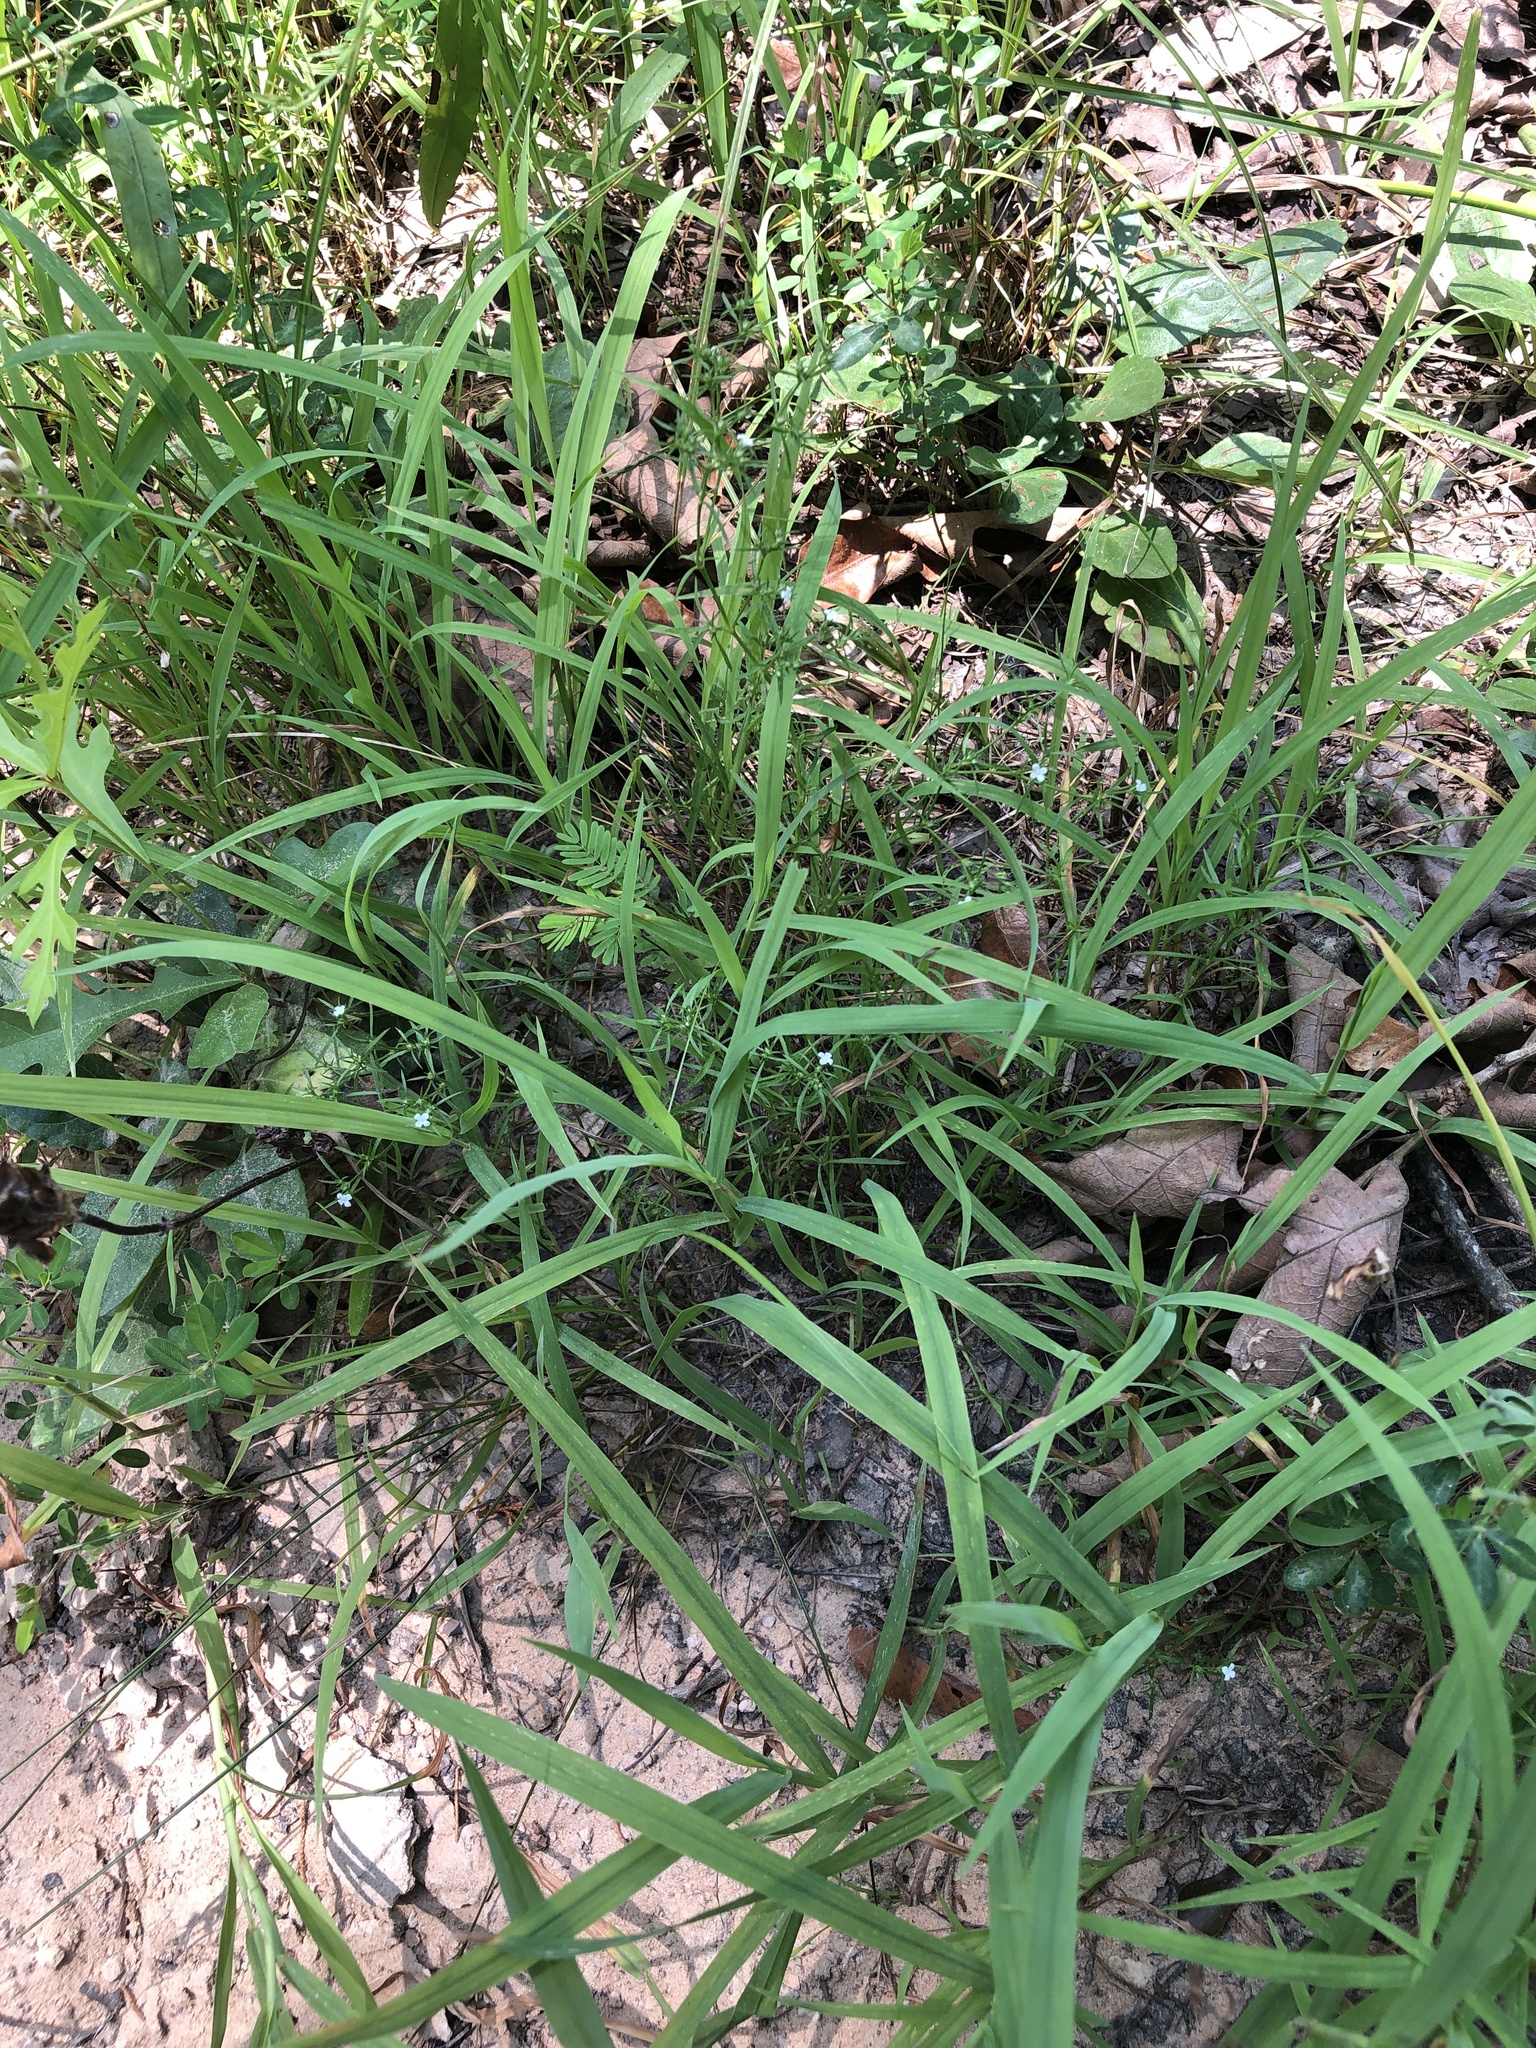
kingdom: Plantae
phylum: Tracheophyta
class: Magnoliopsida
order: Lamiales
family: Tetrachondraceae
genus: Polypremum
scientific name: Polypremum procumbens
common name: Juniper-leaf
